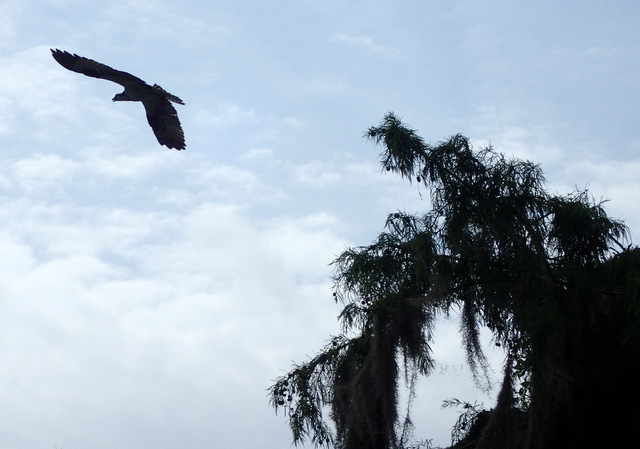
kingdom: Animalia
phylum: Chordata
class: Aves
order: Accipitriformes
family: Pandionidae
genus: Pandion
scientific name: Pandion haliaetus
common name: Osprey
